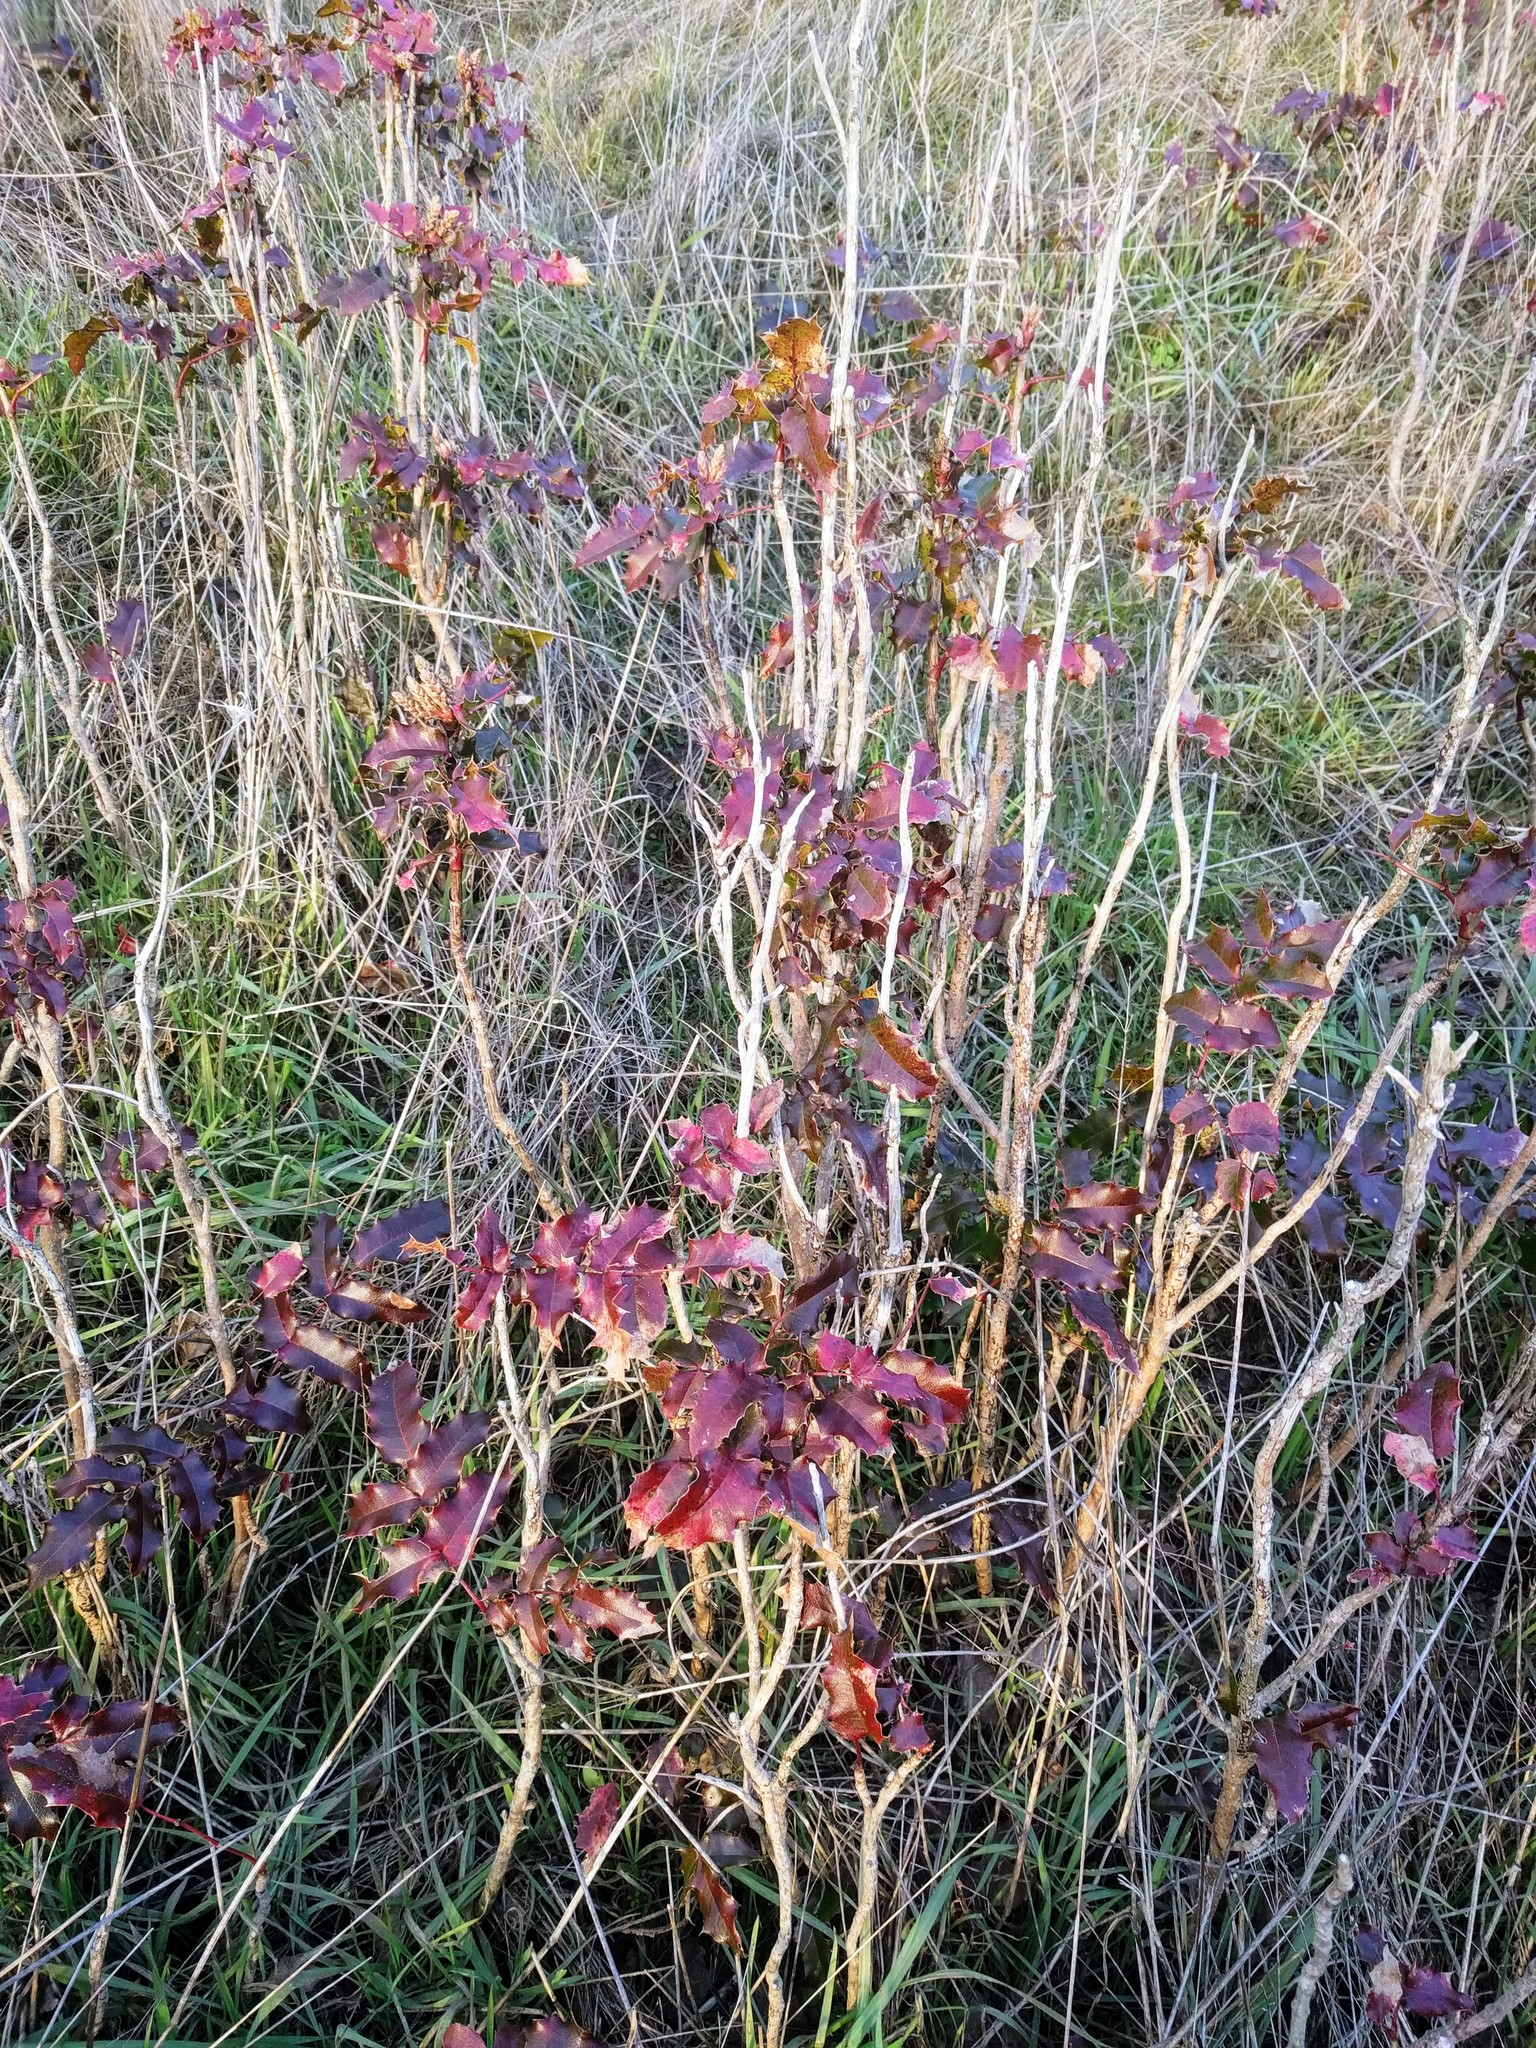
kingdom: Plantae
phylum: Tracheophyta
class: Magnoliopsida
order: Ranunculales
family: Berberidaceae
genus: Mahonia
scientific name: Mahonia aquifolium
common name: Oregon-grape
